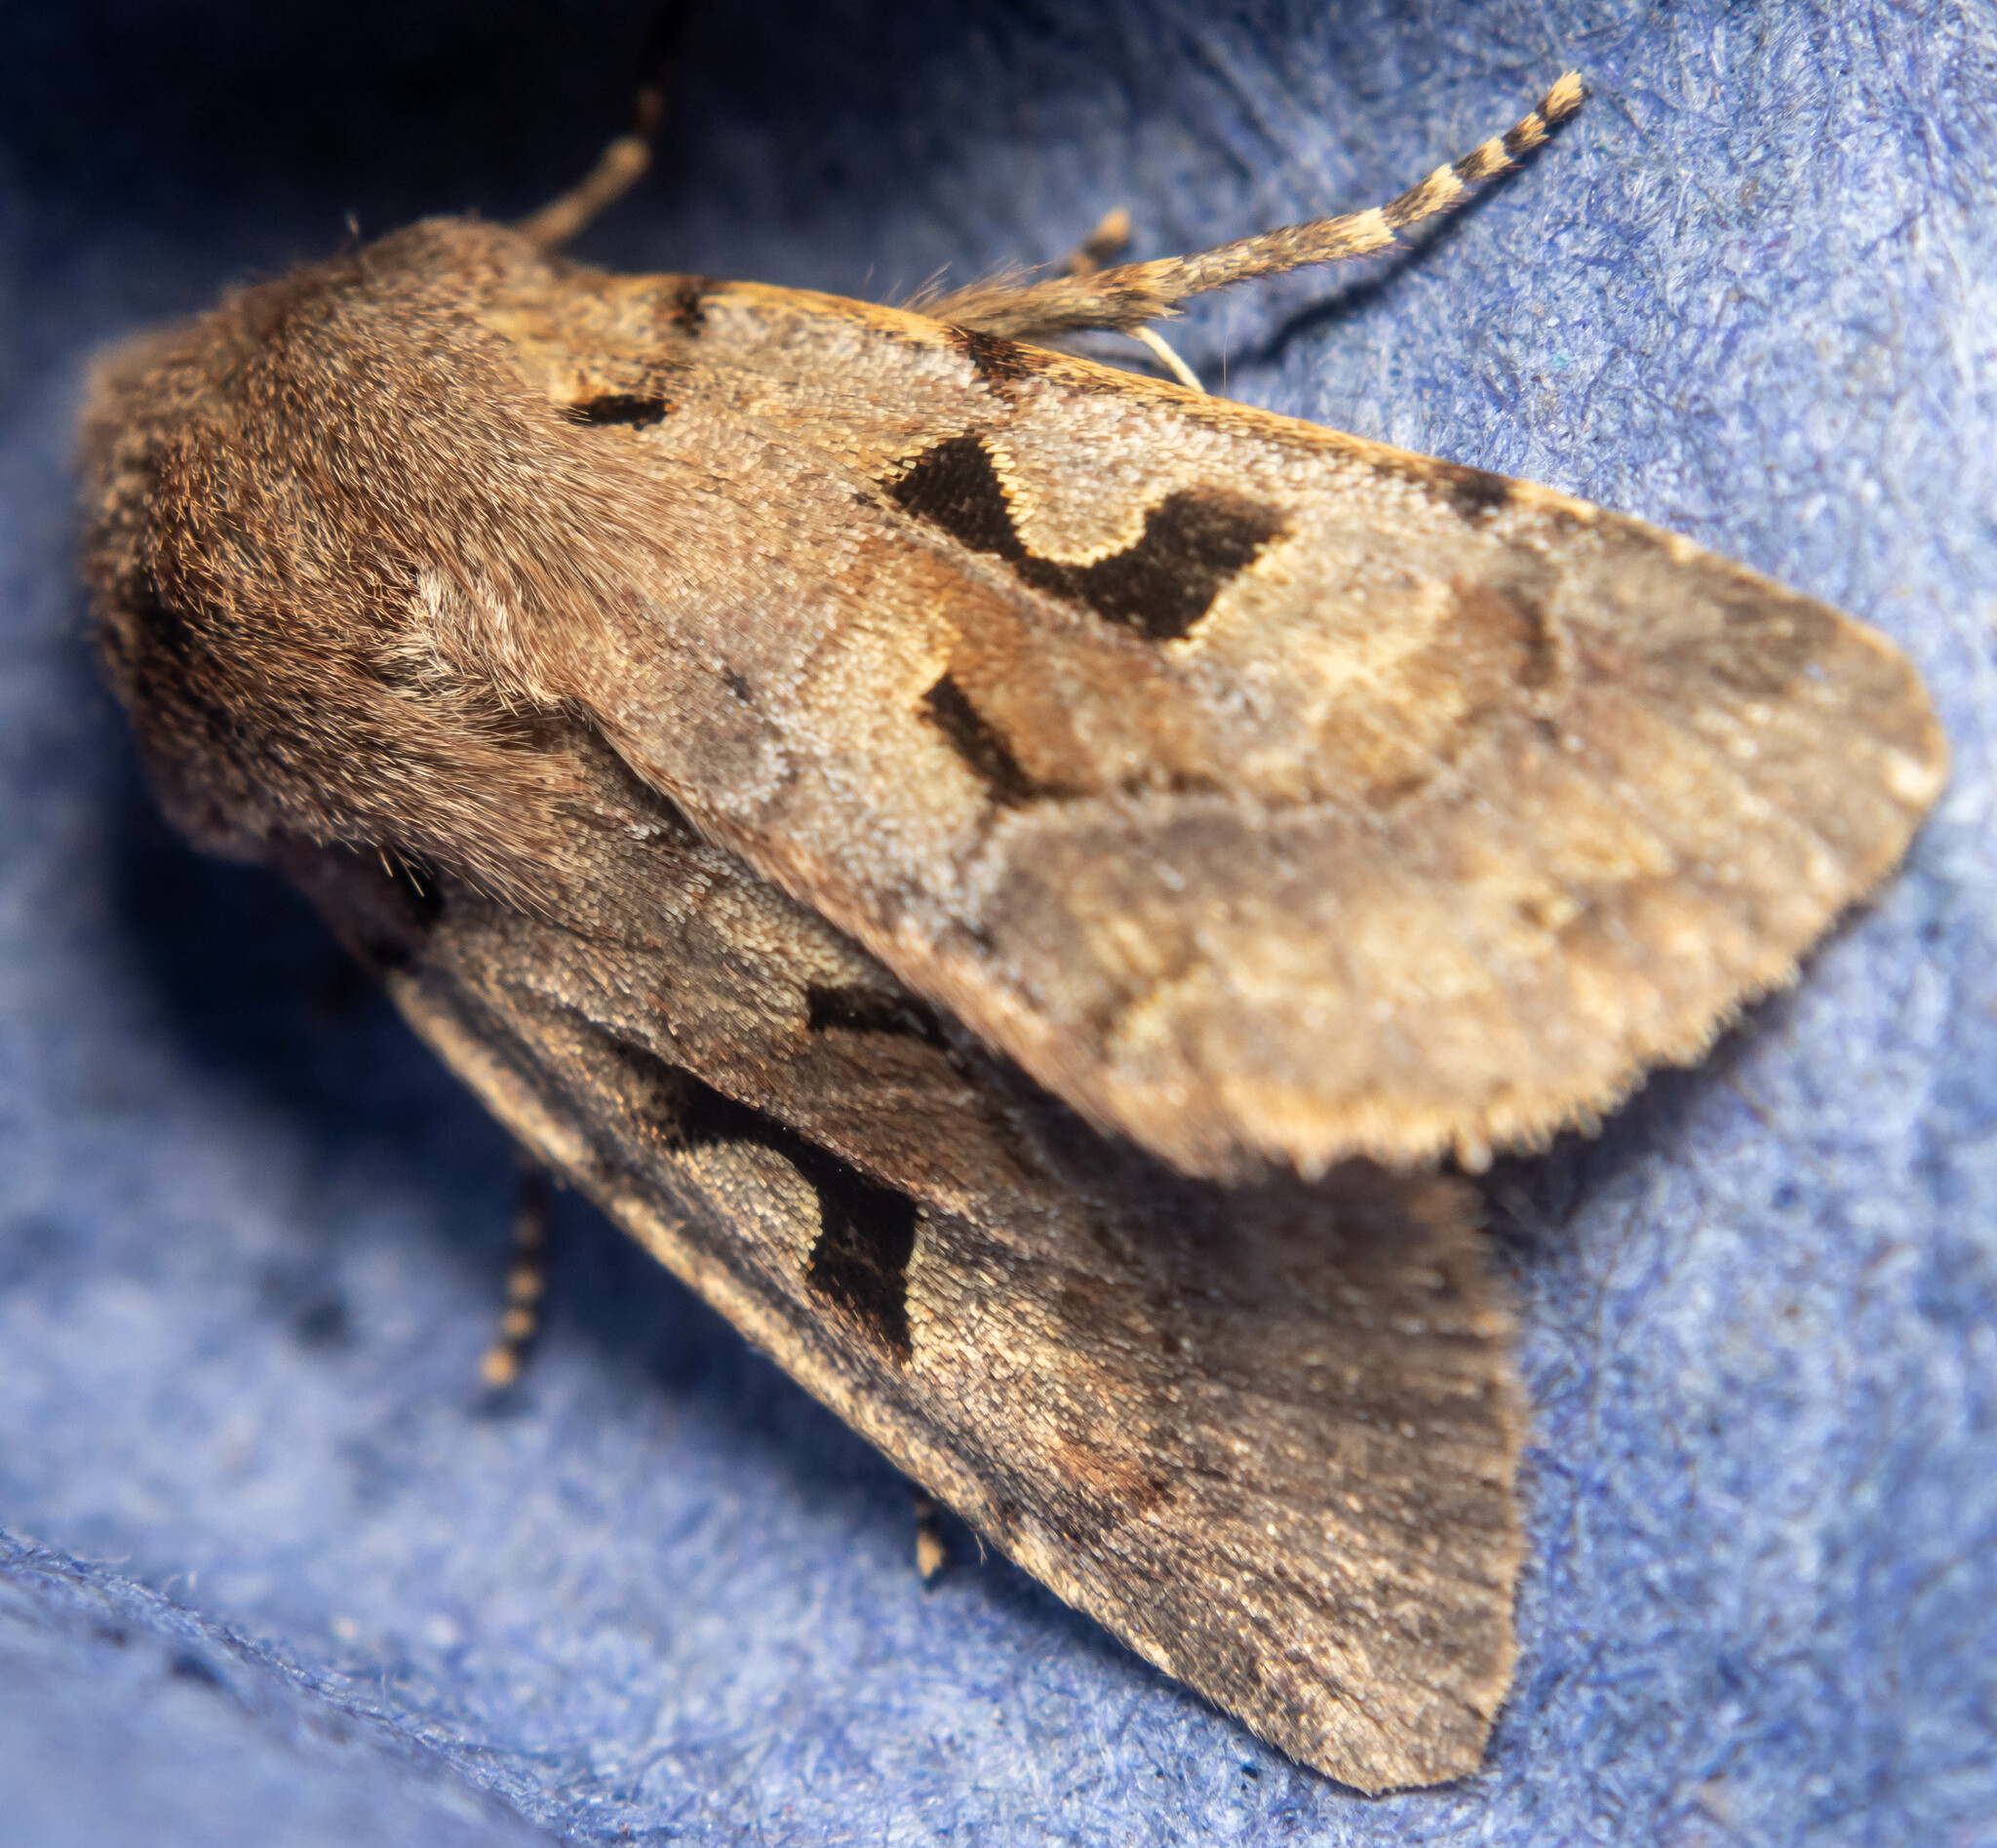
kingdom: Animalia
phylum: Arthropoda
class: Insecta
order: Lepidoptera
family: Noctuidae
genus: Orthosia
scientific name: Orthosia gothica
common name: Hebrew character
